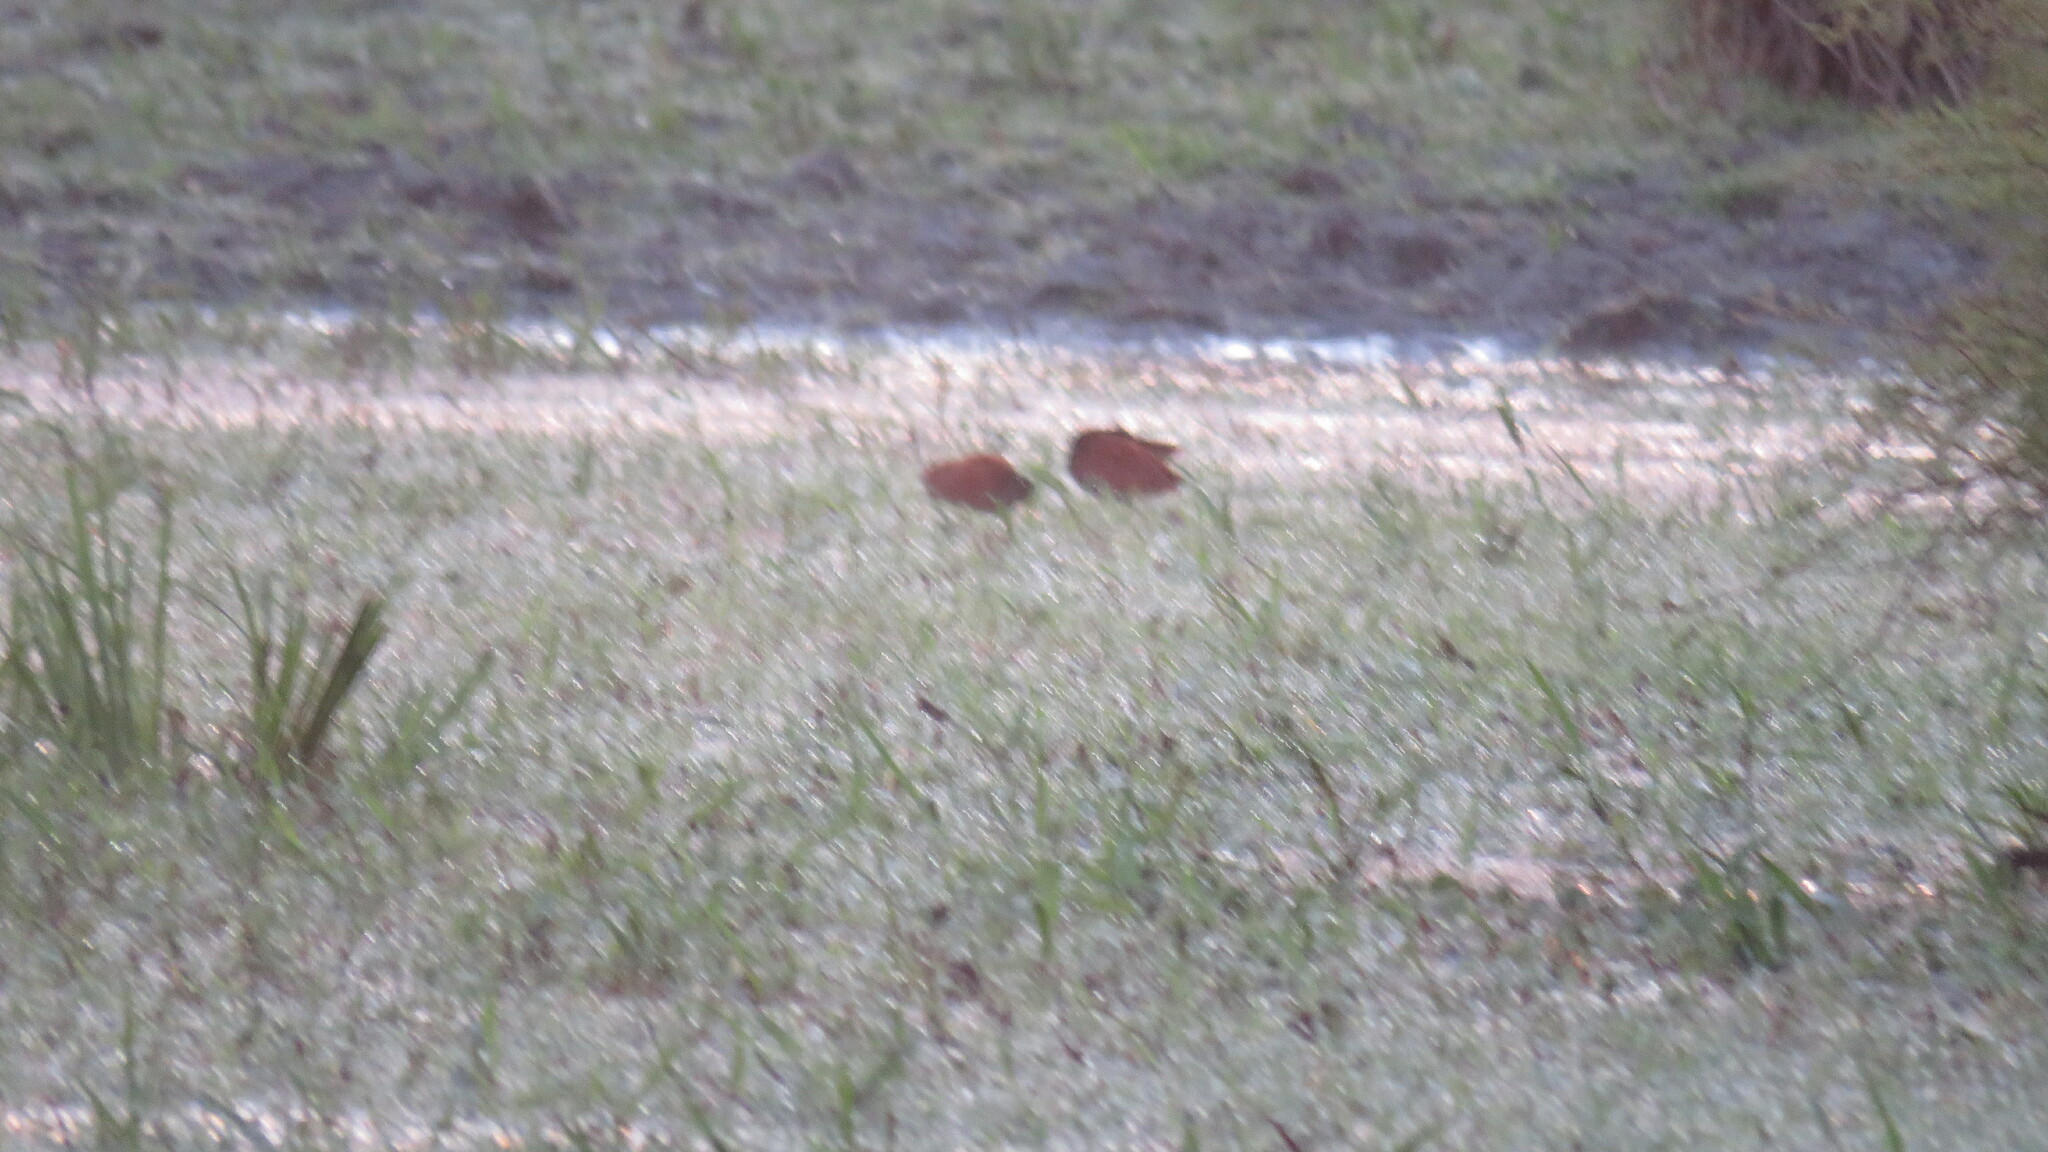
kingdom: Animalia
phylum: Chordata
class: Aves
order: Charadriiformes
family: Jacanidae
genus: Jacana
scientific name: Jacana jacana
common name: Wattled jacana
